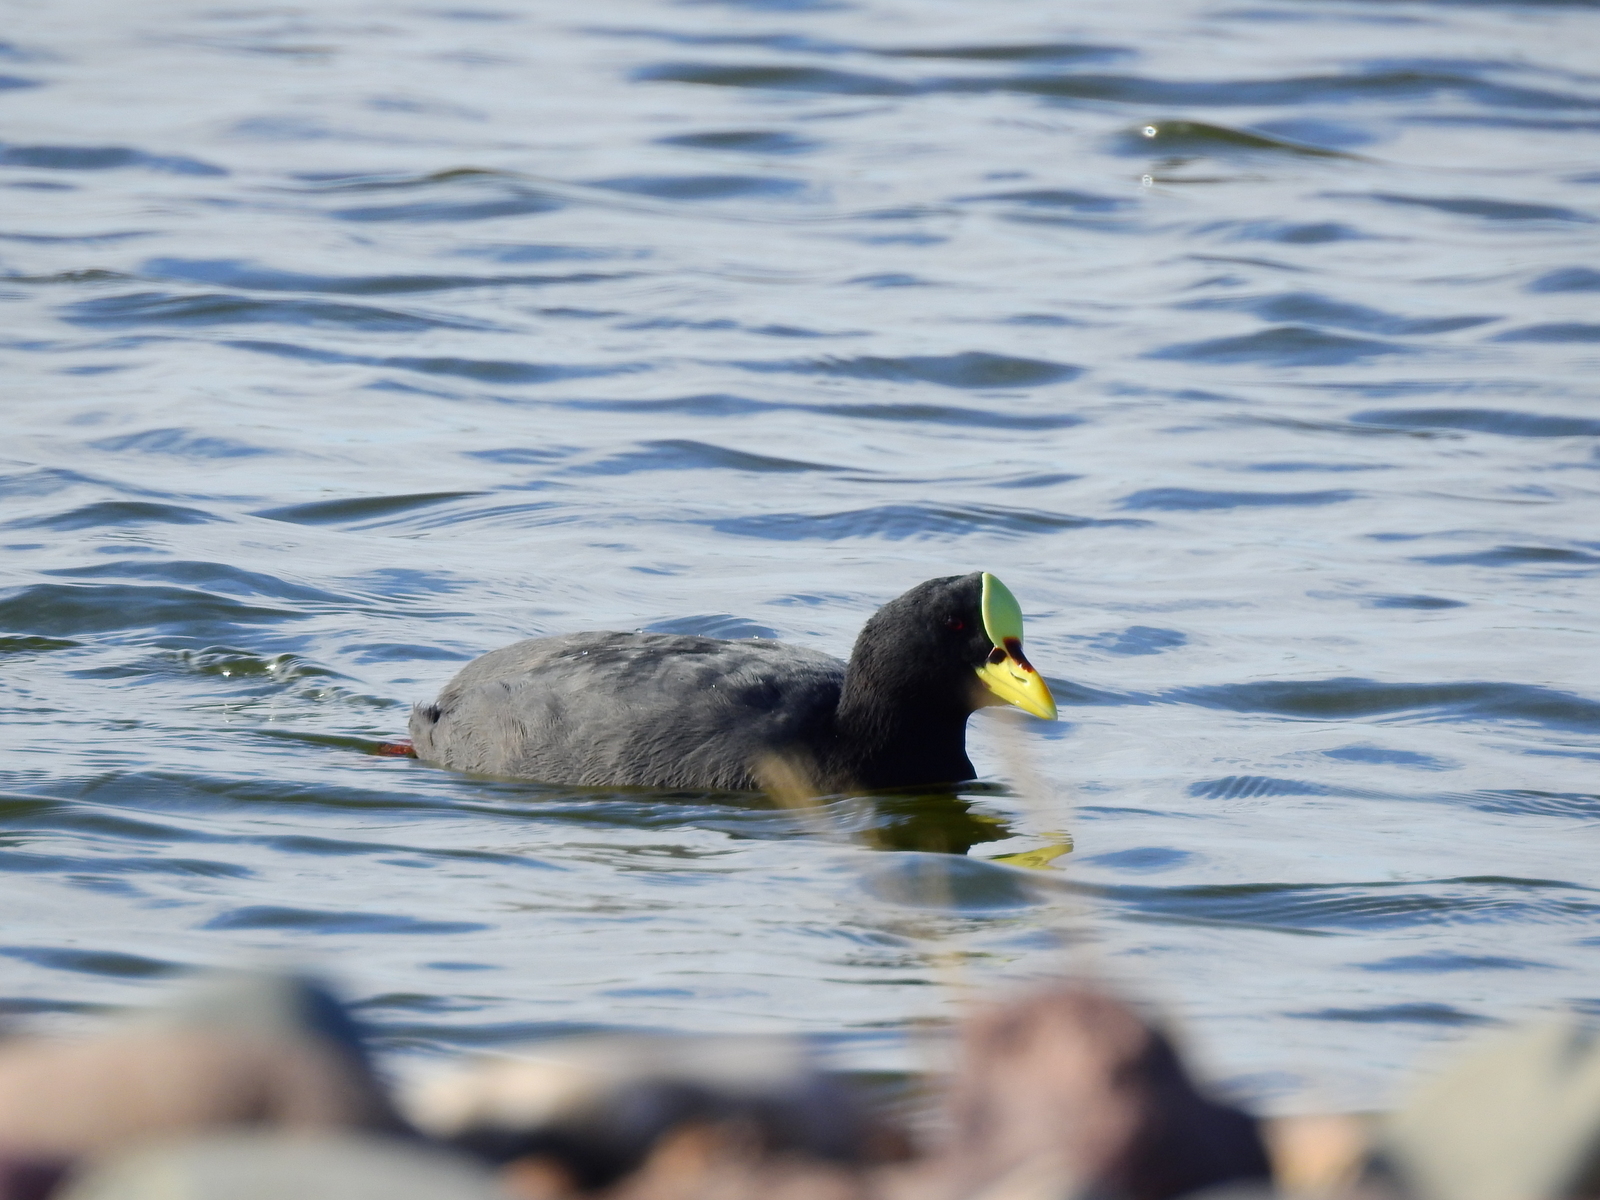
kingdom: Animalia
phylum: Chordata
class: Aves
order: Gruiformes
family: Rallidae
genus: Fulica
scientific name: Fulica armillata
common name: Red-gartered coot
